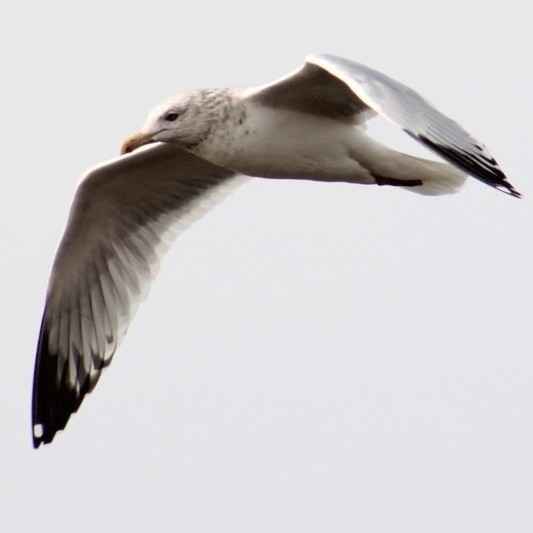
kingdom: Animalia
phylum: Chordata
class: Aves
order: Charadriiformes
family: Laridae
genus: Larus
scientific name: Larus argentatus
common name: Herring gull
